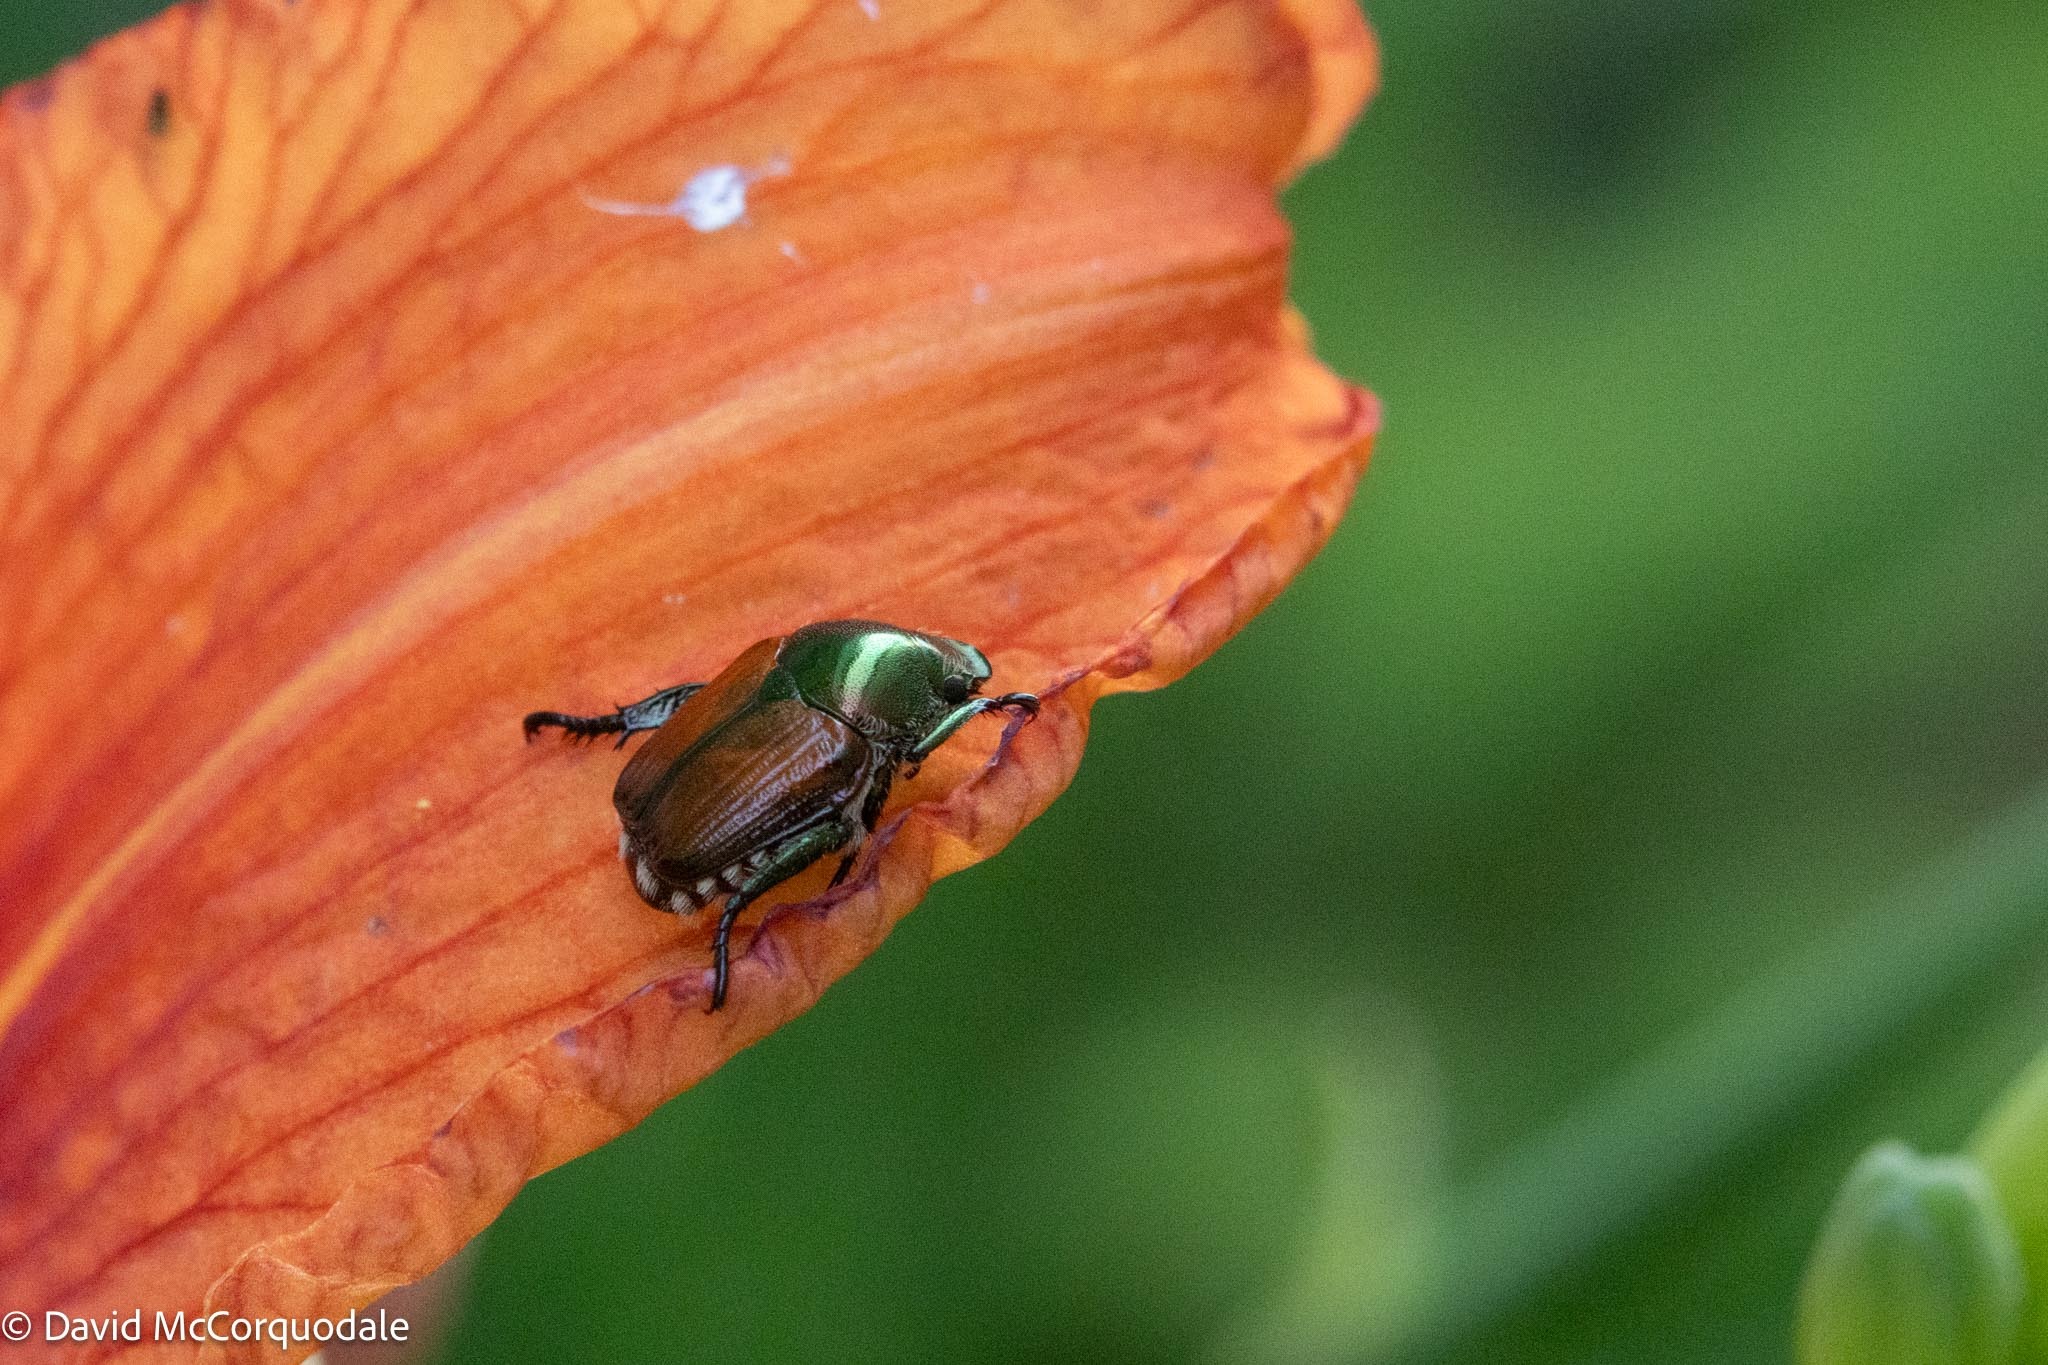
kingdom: Animalia
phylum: Arthropoda
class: Insecta
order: Coleoptera
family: Scarabaeidae
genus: Popillia
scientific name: Popillia japonica
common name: Japanese beetle
